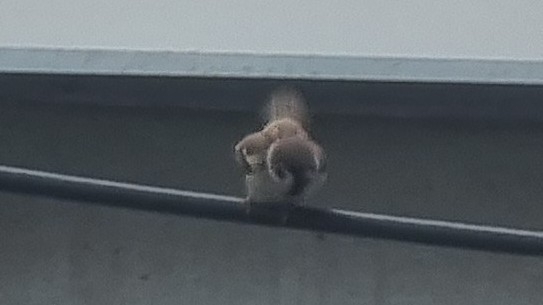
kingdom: Animalia
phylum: Chordata
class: Aves
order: Passeriformes
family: Passeridae
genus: Passer
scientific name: Passer montanus
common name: Eurasian tree sparrow
